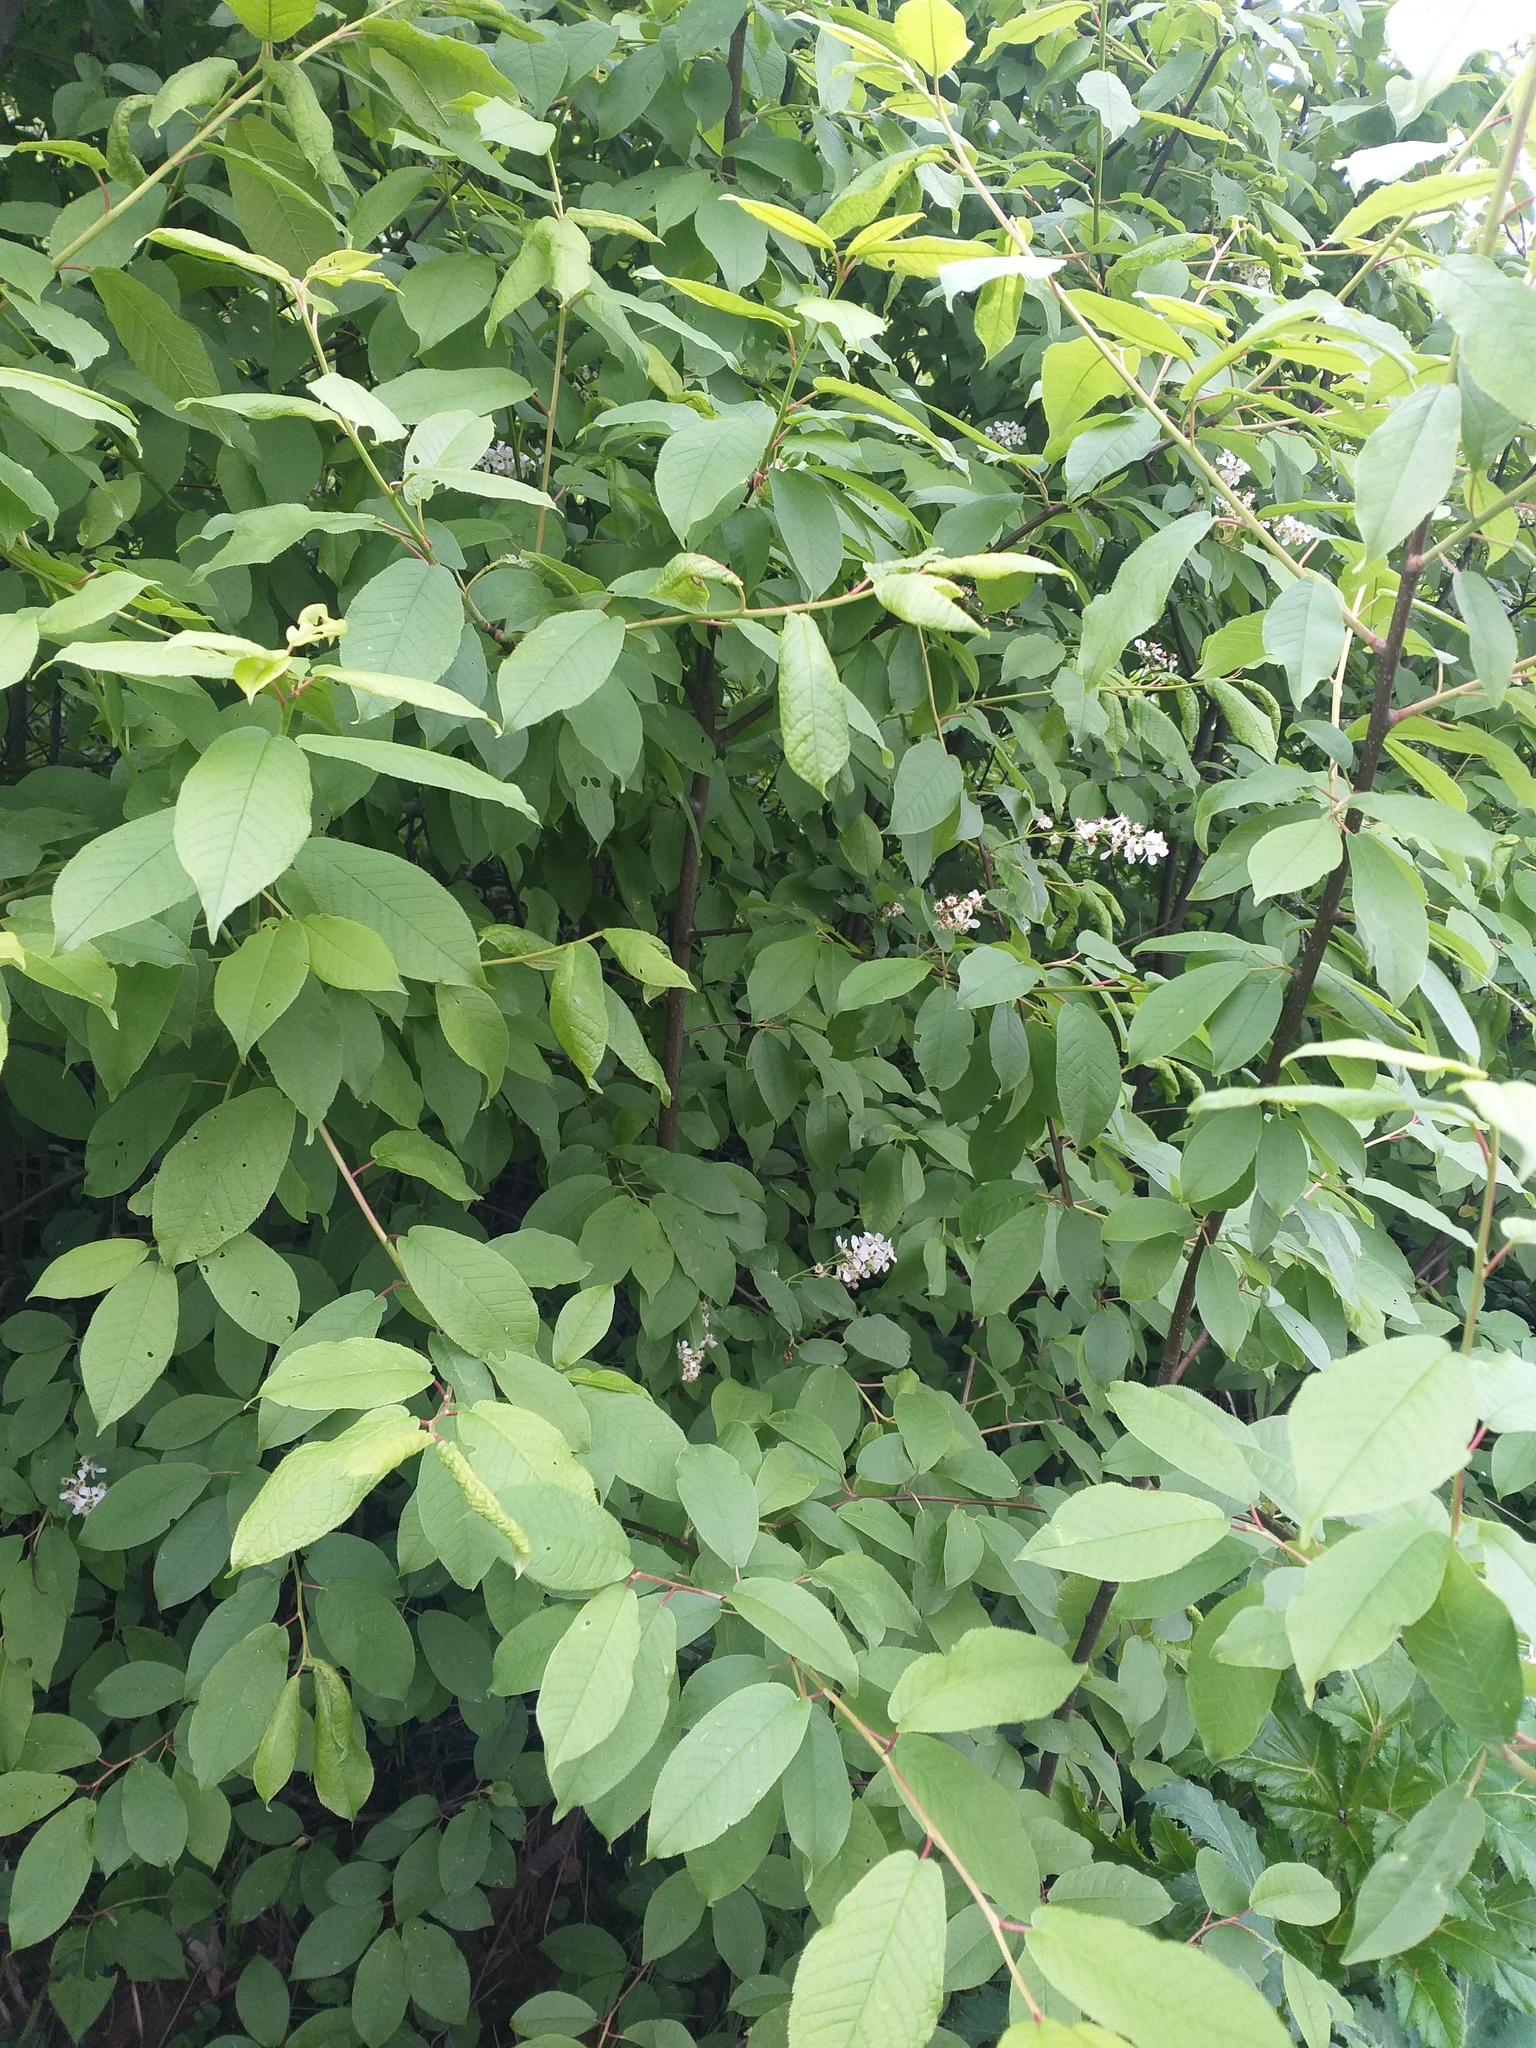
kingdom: Plantae
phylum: Tracheophyta
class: Magnoliopsida
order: Rosales
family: Rosaceae
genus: Prunus
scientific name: Prunus padus
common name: Bird cherry
